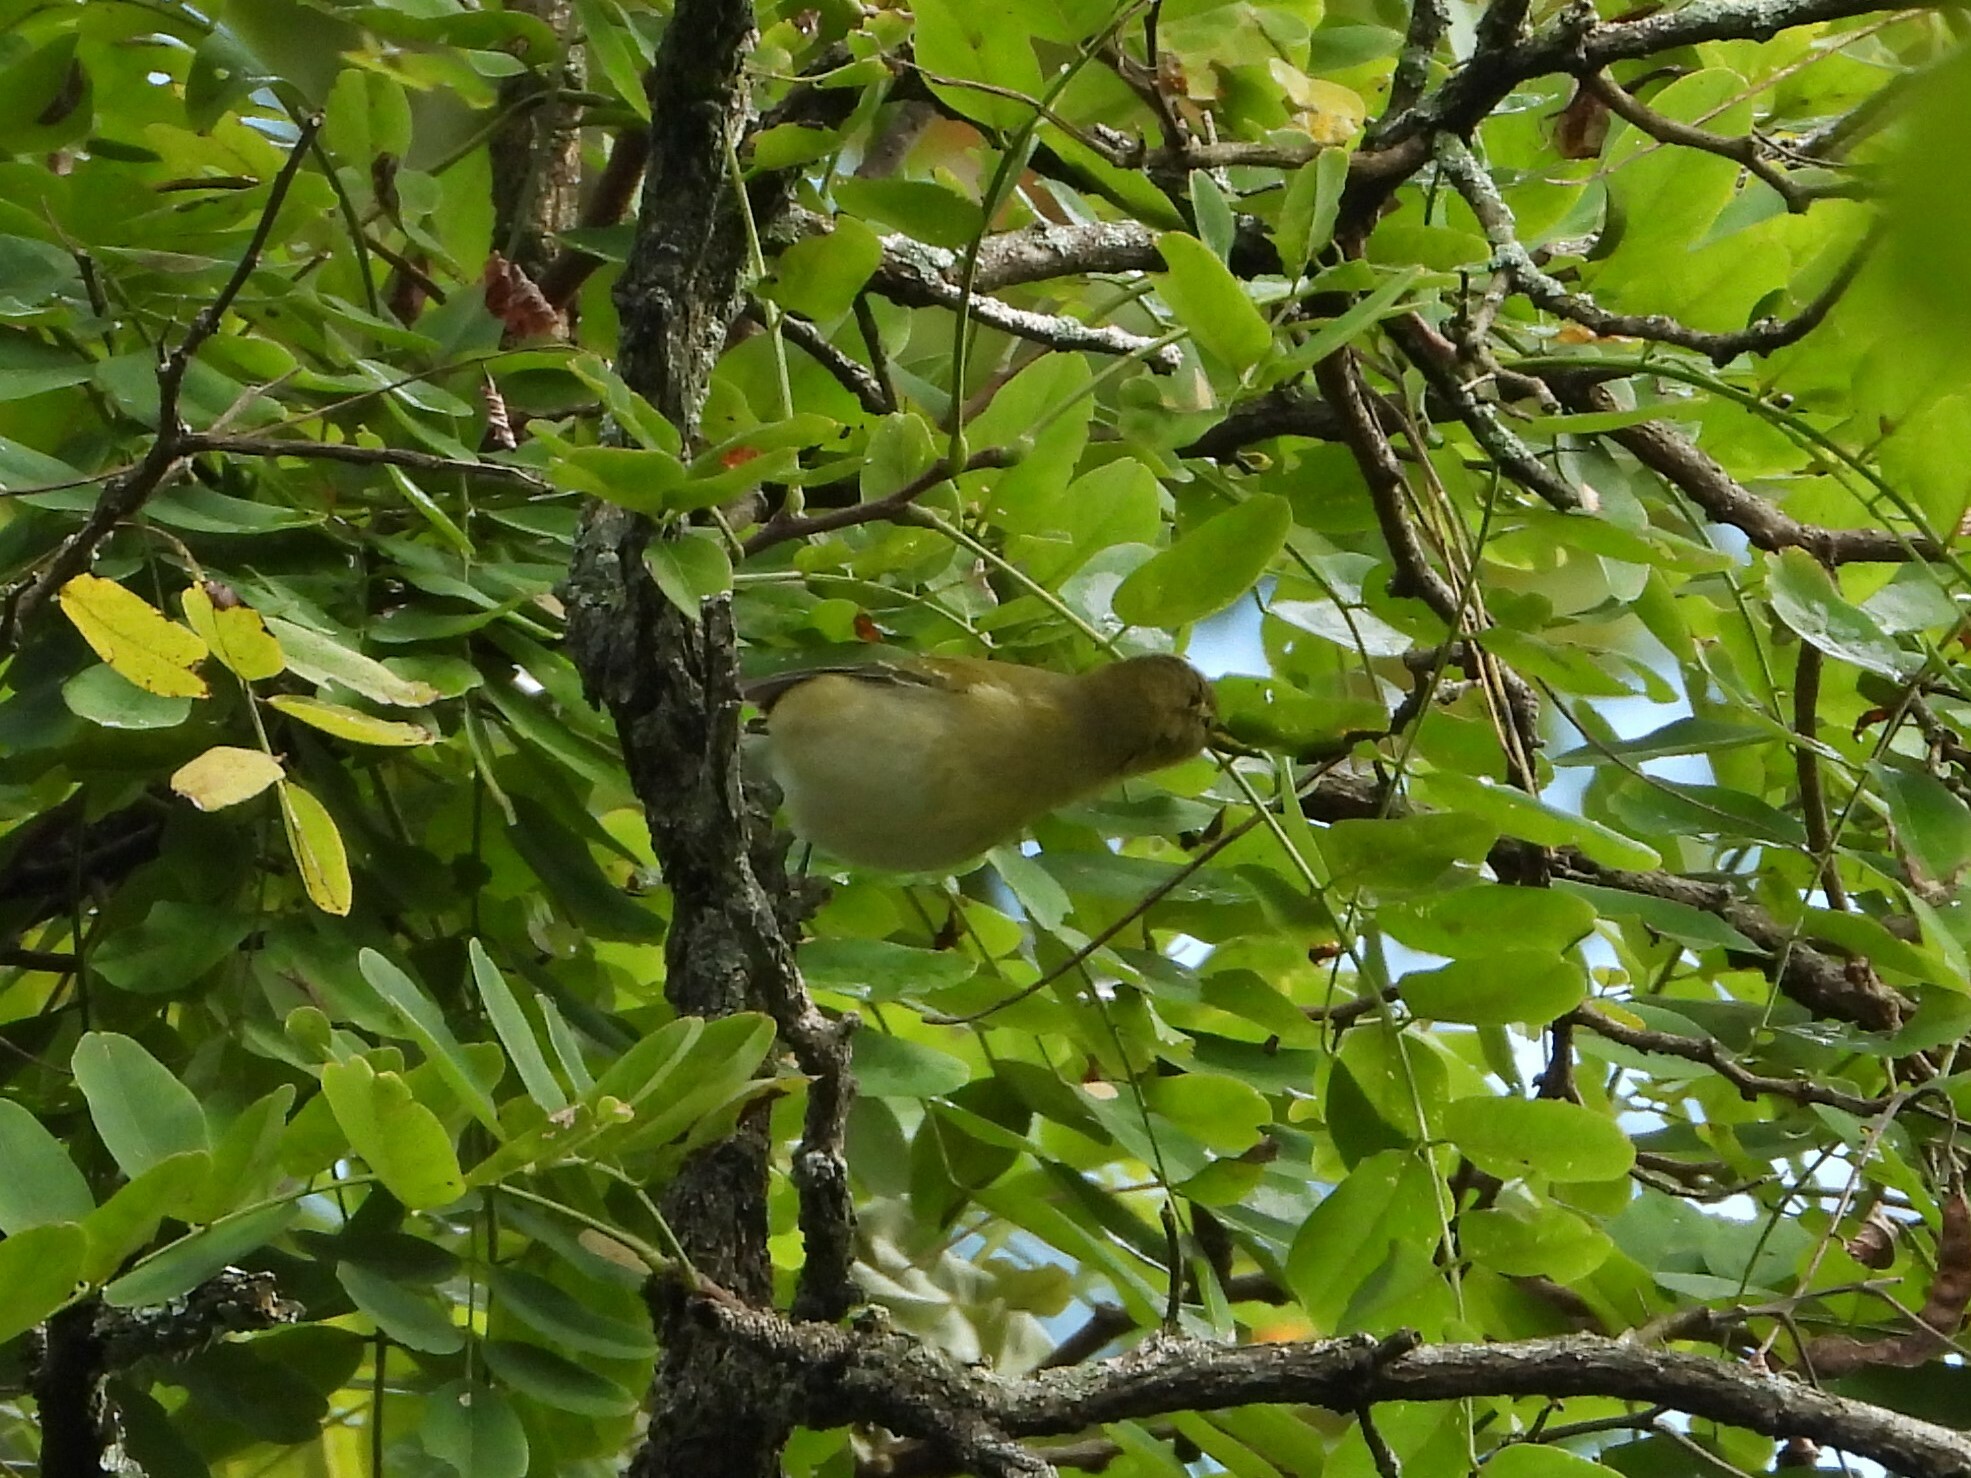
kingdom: Animalia
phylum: Chordata
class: Aves
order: Passeriformes
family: Parulidae
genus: Leiothlypis
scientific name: Leiothlypis peregrina
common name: Tennessee warbler
